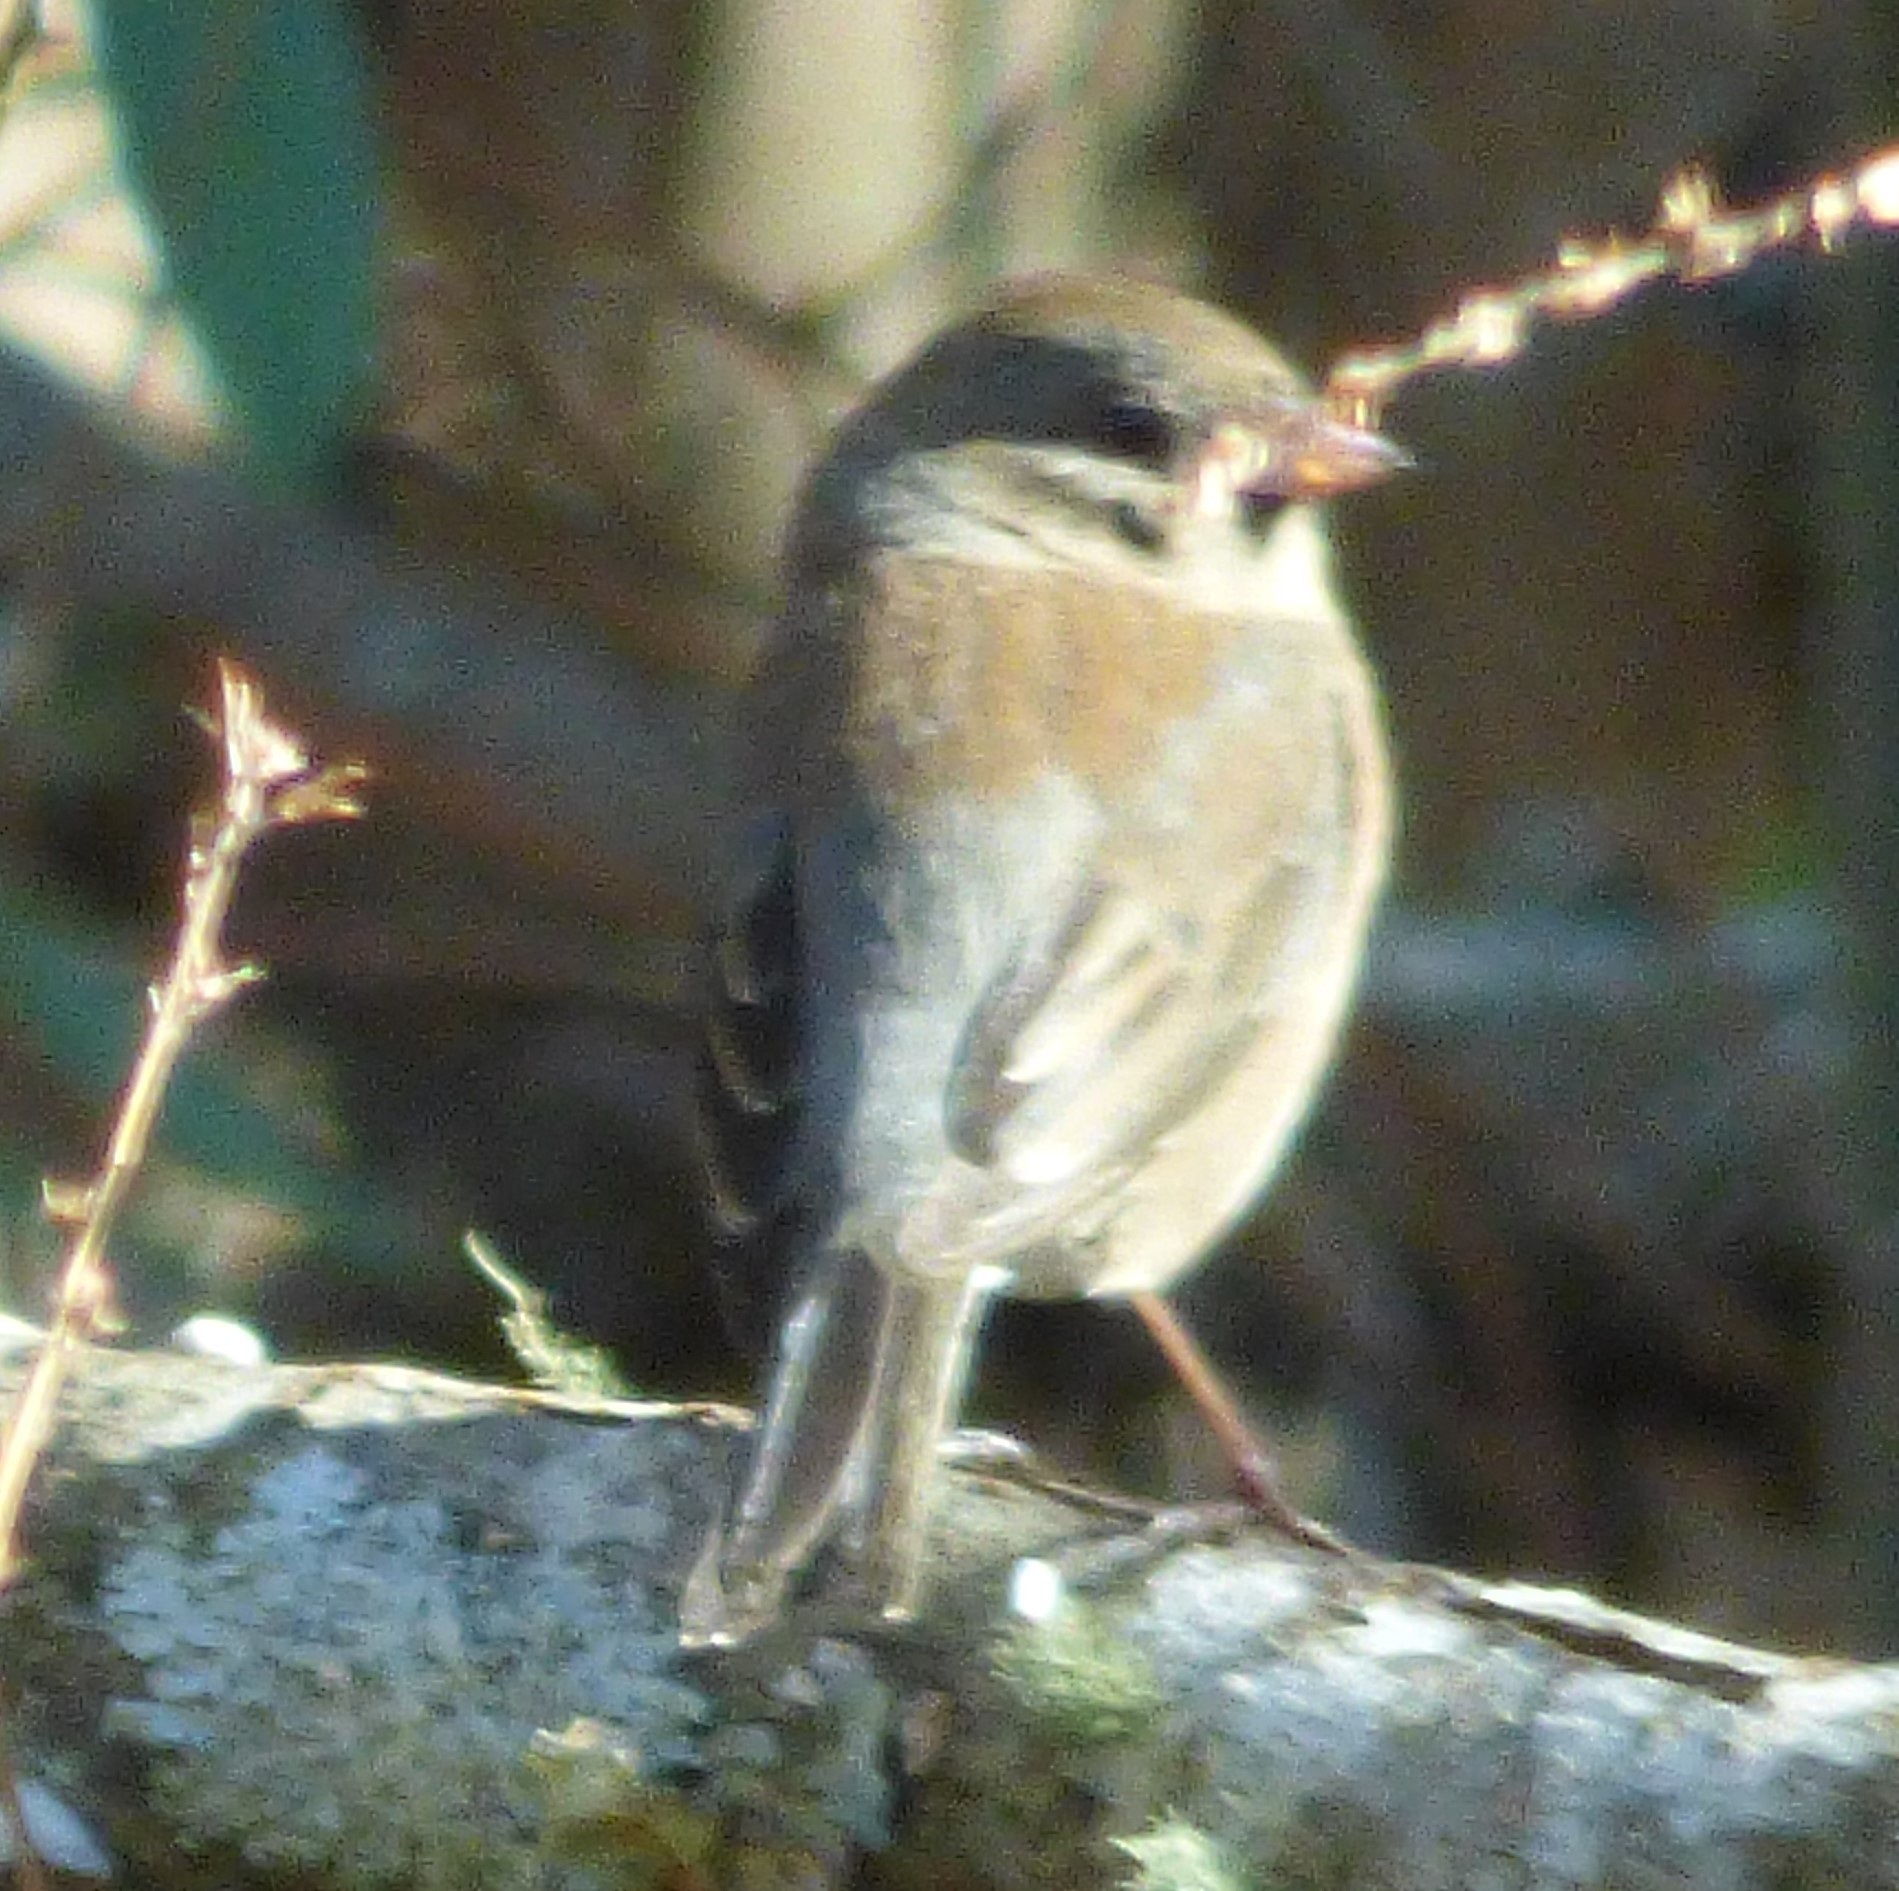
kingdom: Animalia
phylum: Chordata
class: Aves
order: Passeriformes
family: Passerellidae
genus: Junco
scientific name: Junco hyemalis
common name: Dark-eyed junco
